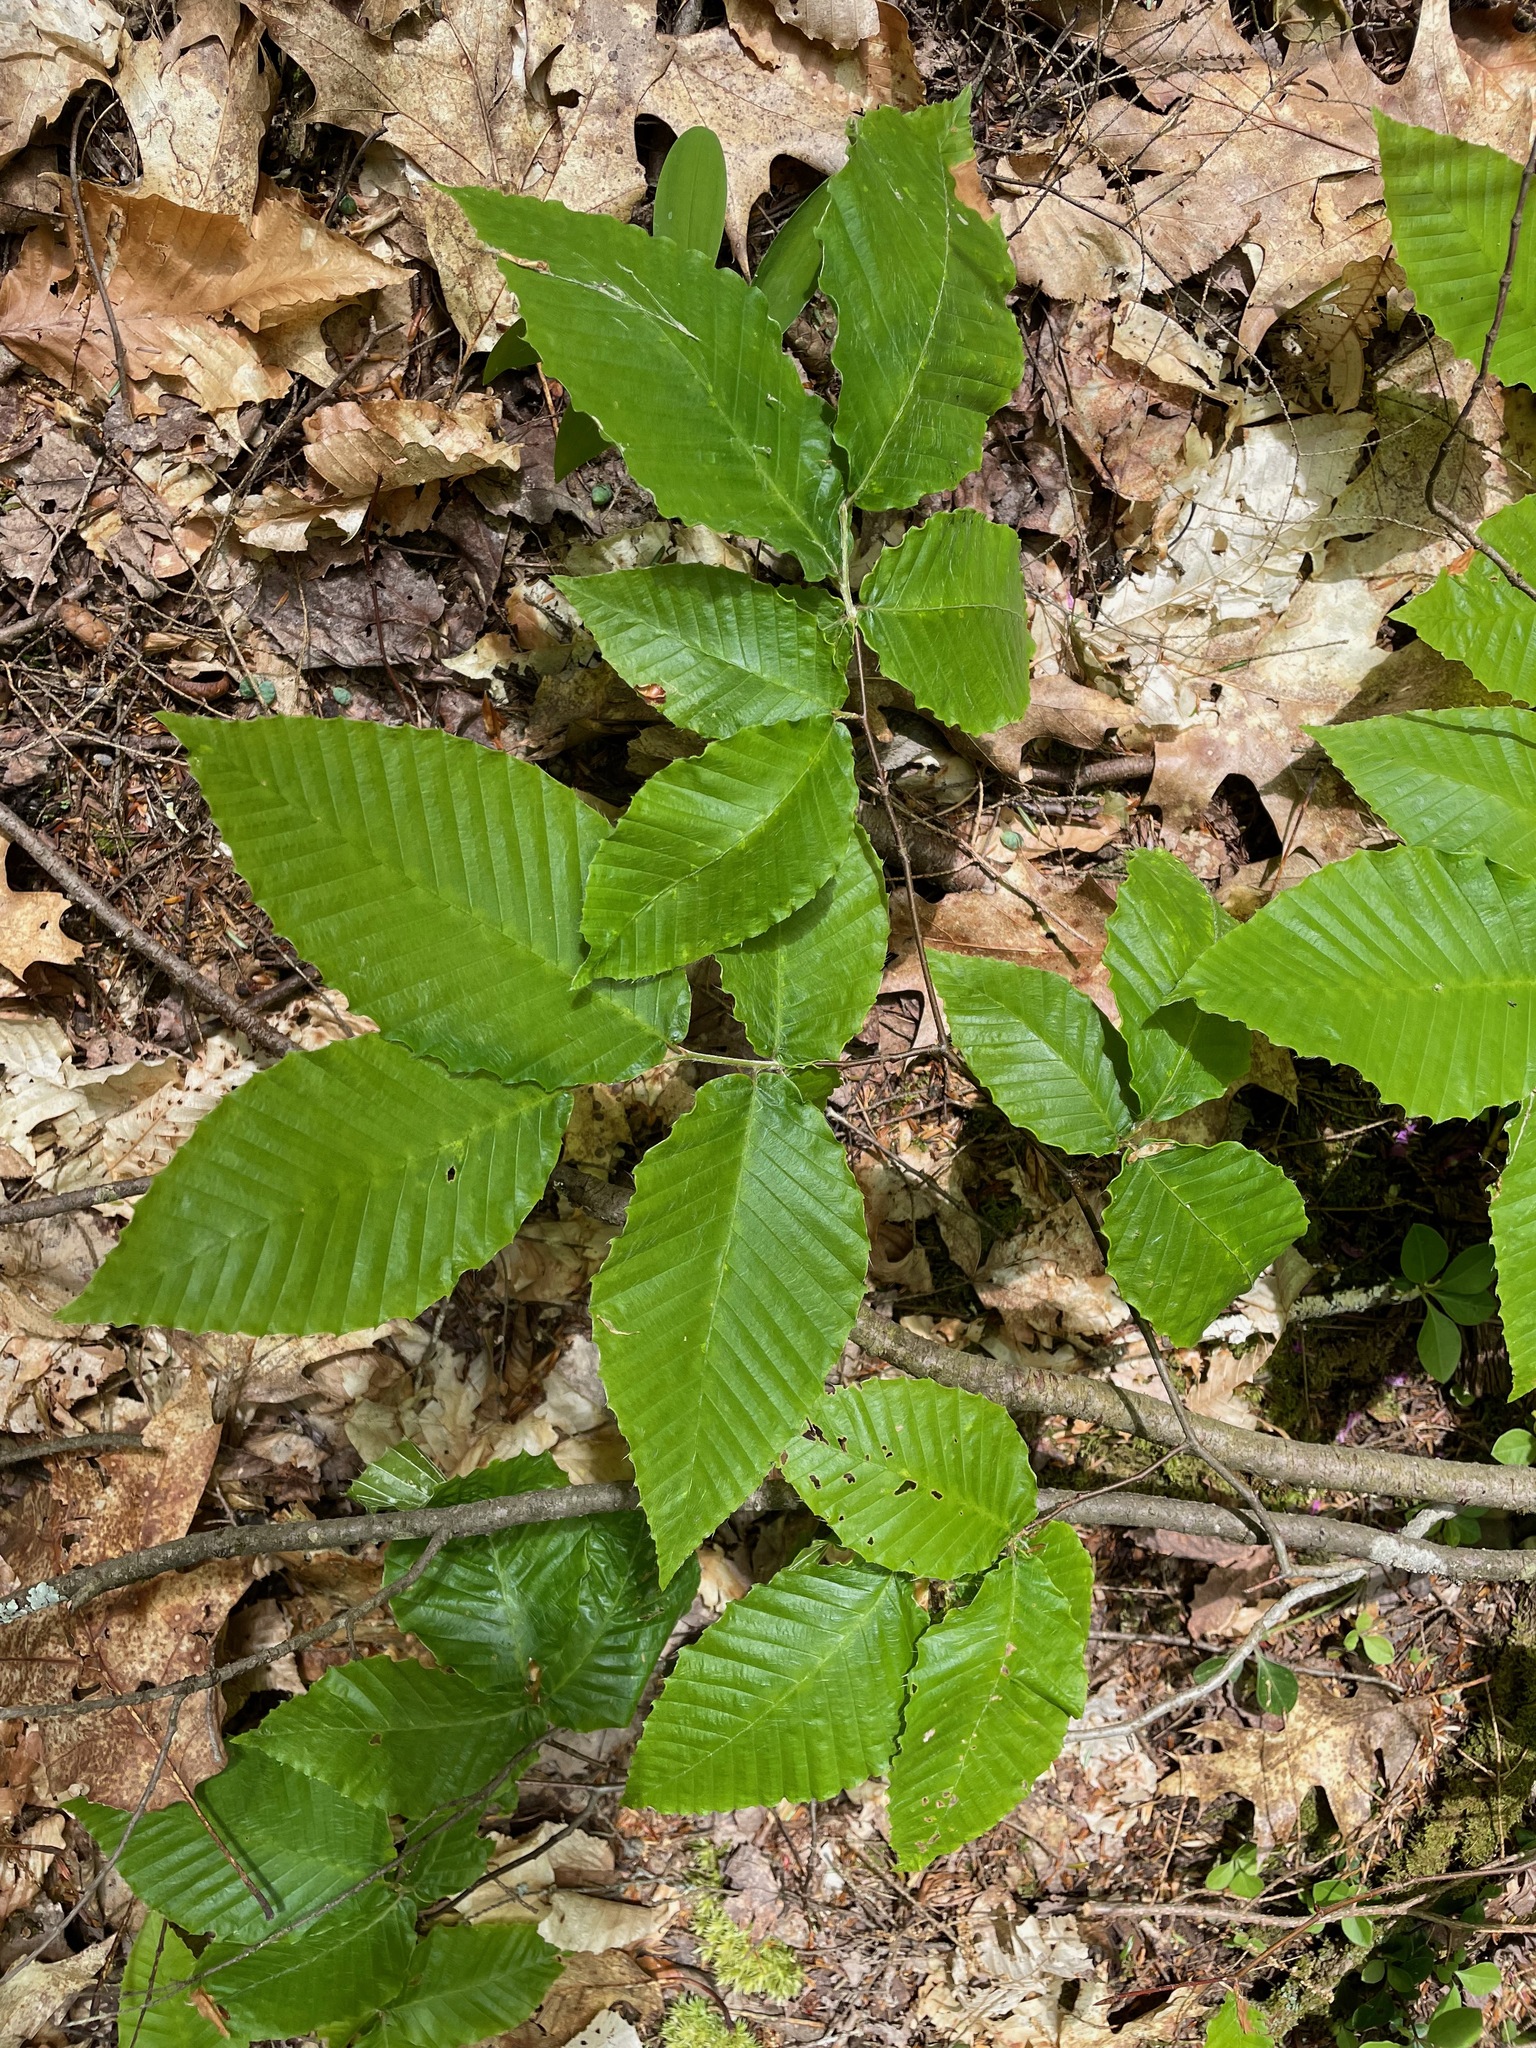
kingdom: Plantae
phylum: Tracheophyta
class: Magnoliopsida
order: Fagales
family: Fagaceae
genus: Fagus
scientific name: Fagus grandifolia
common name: American beech
